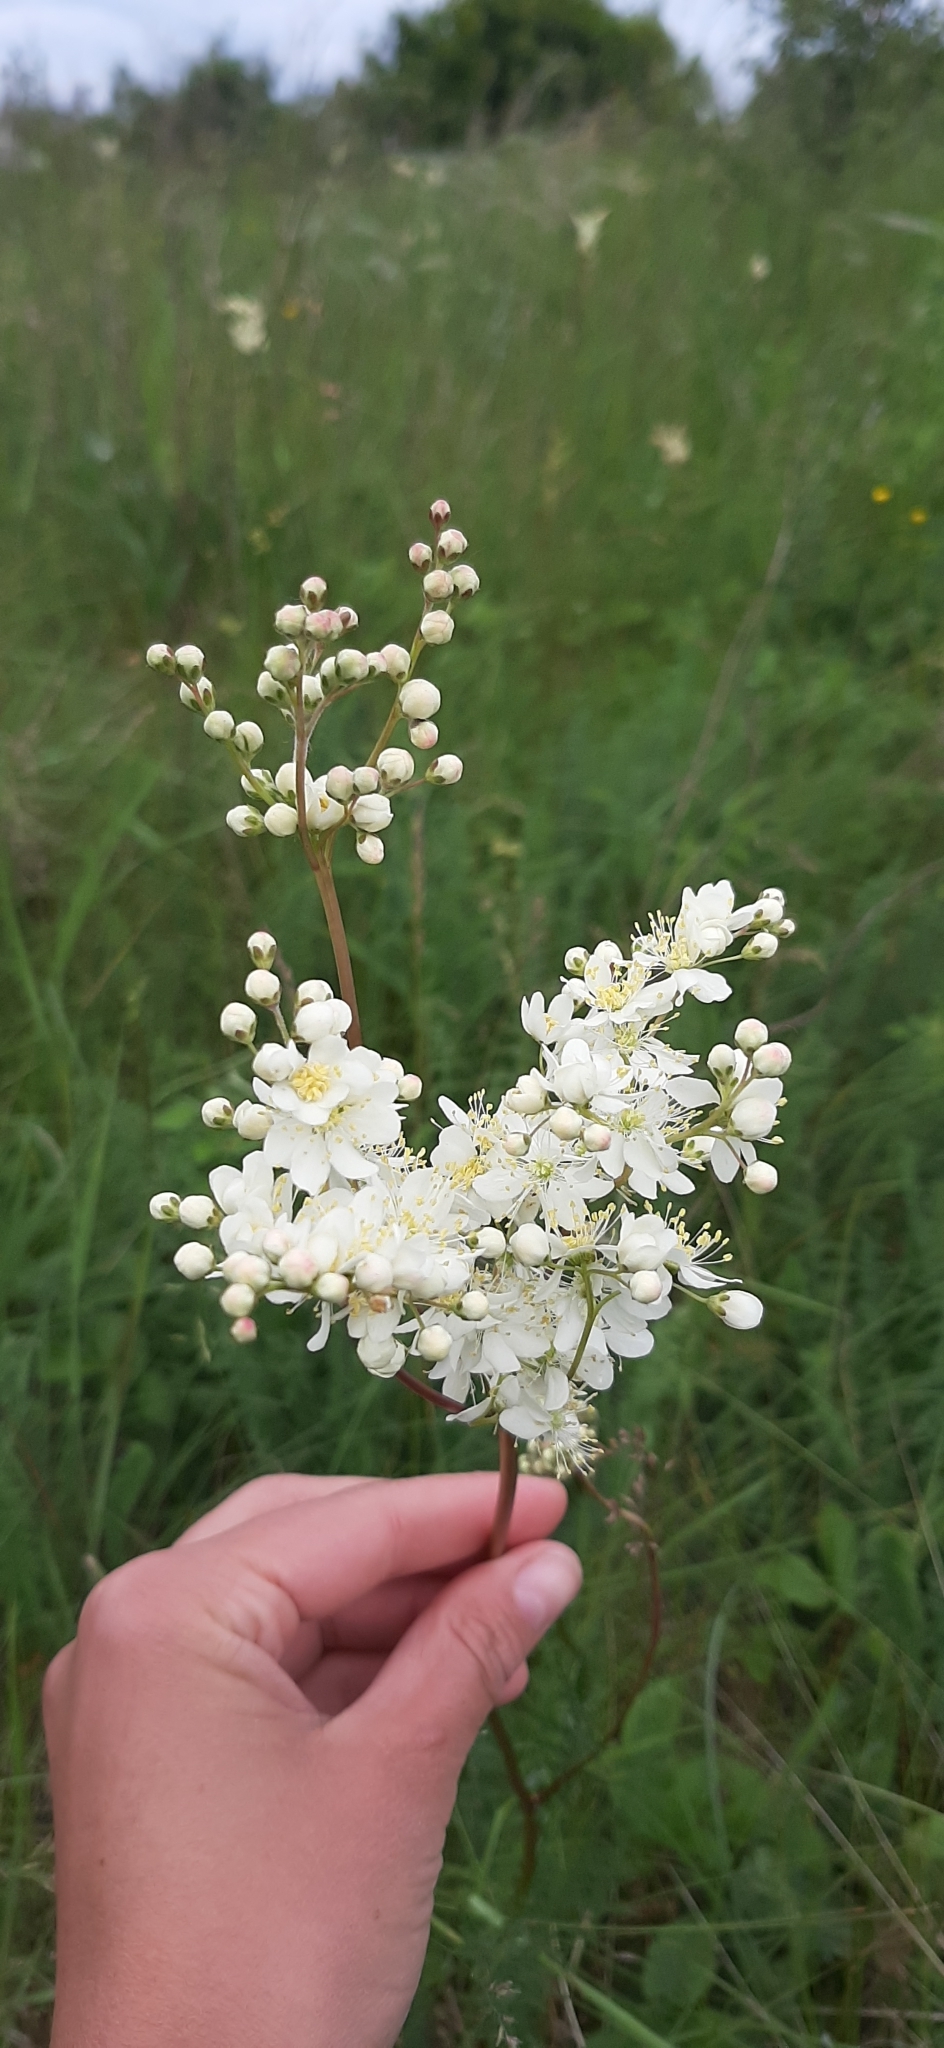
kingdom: Plantae
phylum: Tracheophyta
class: Magnoliopsida
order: Rosales
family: Rosaceae
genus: Filipendula
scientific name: Filipendula vulgaris
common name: Dropwort
